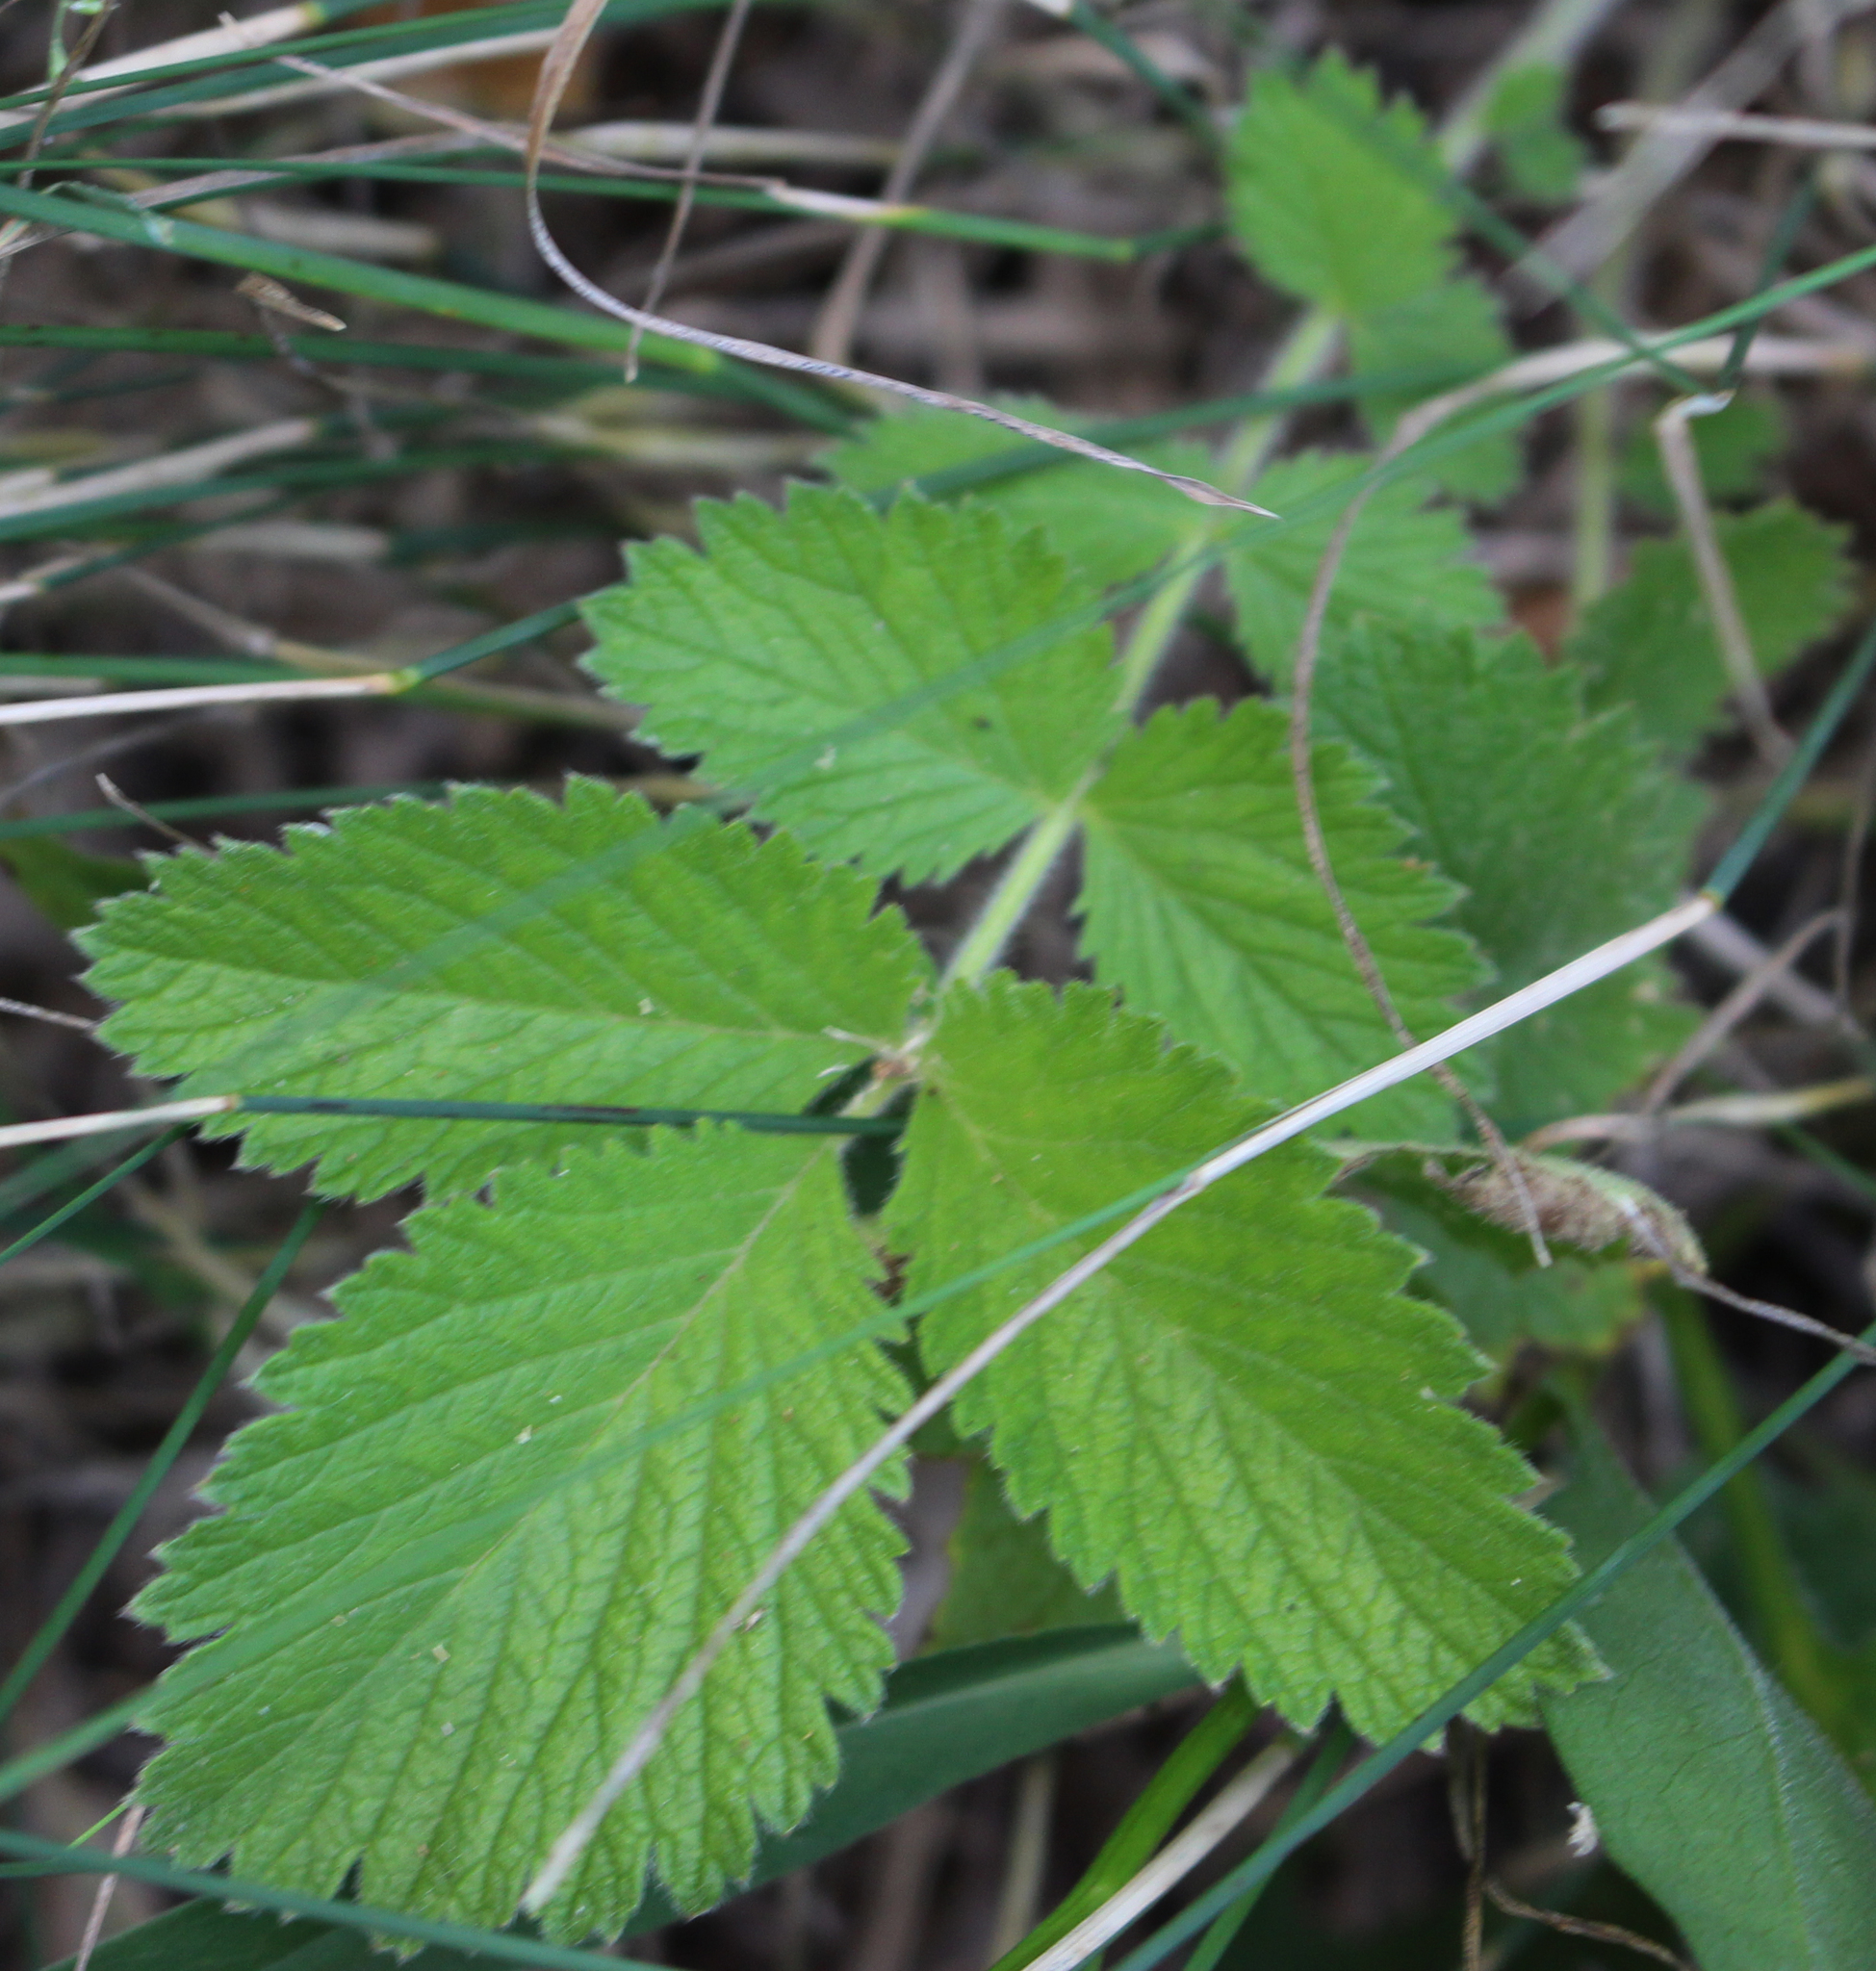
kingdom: Plantae
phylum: Tracheophyta
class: Magnoliopsida
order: Rosales
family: Rosaceae
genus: Drymocallis
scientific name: Drymocallis arguta
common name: Tall cinquefoil
